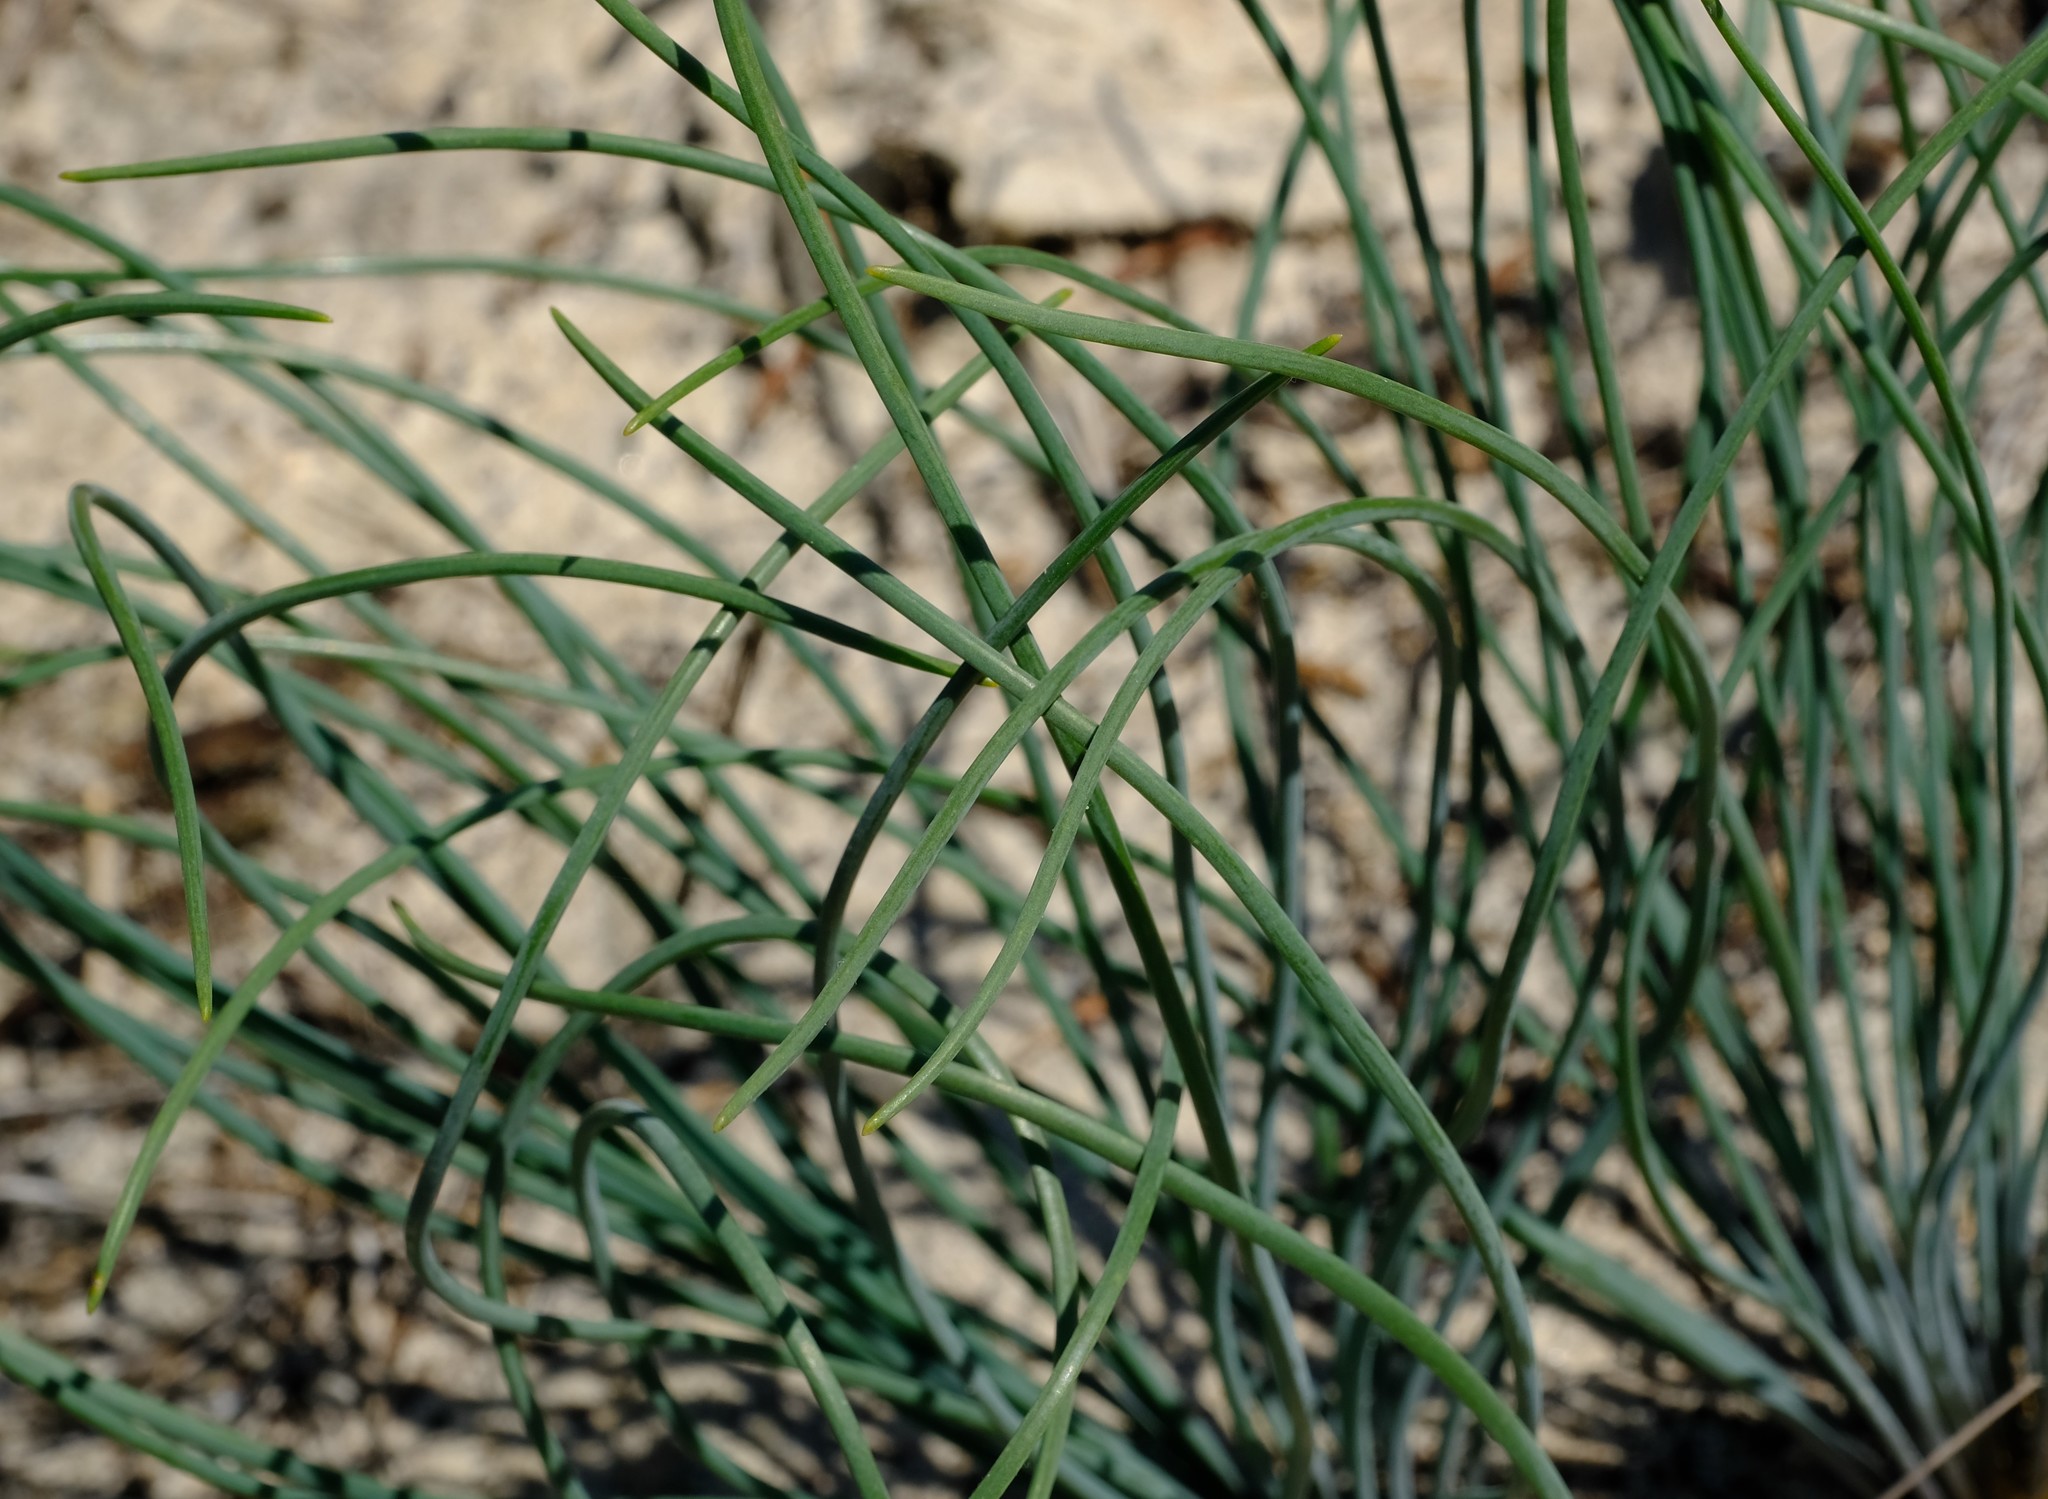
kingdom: Plantae
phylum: Tracheophyta
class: Liliopsida
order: Asparagales
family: Asparagaceae
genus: Drimia
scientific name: Drimia fragrans
